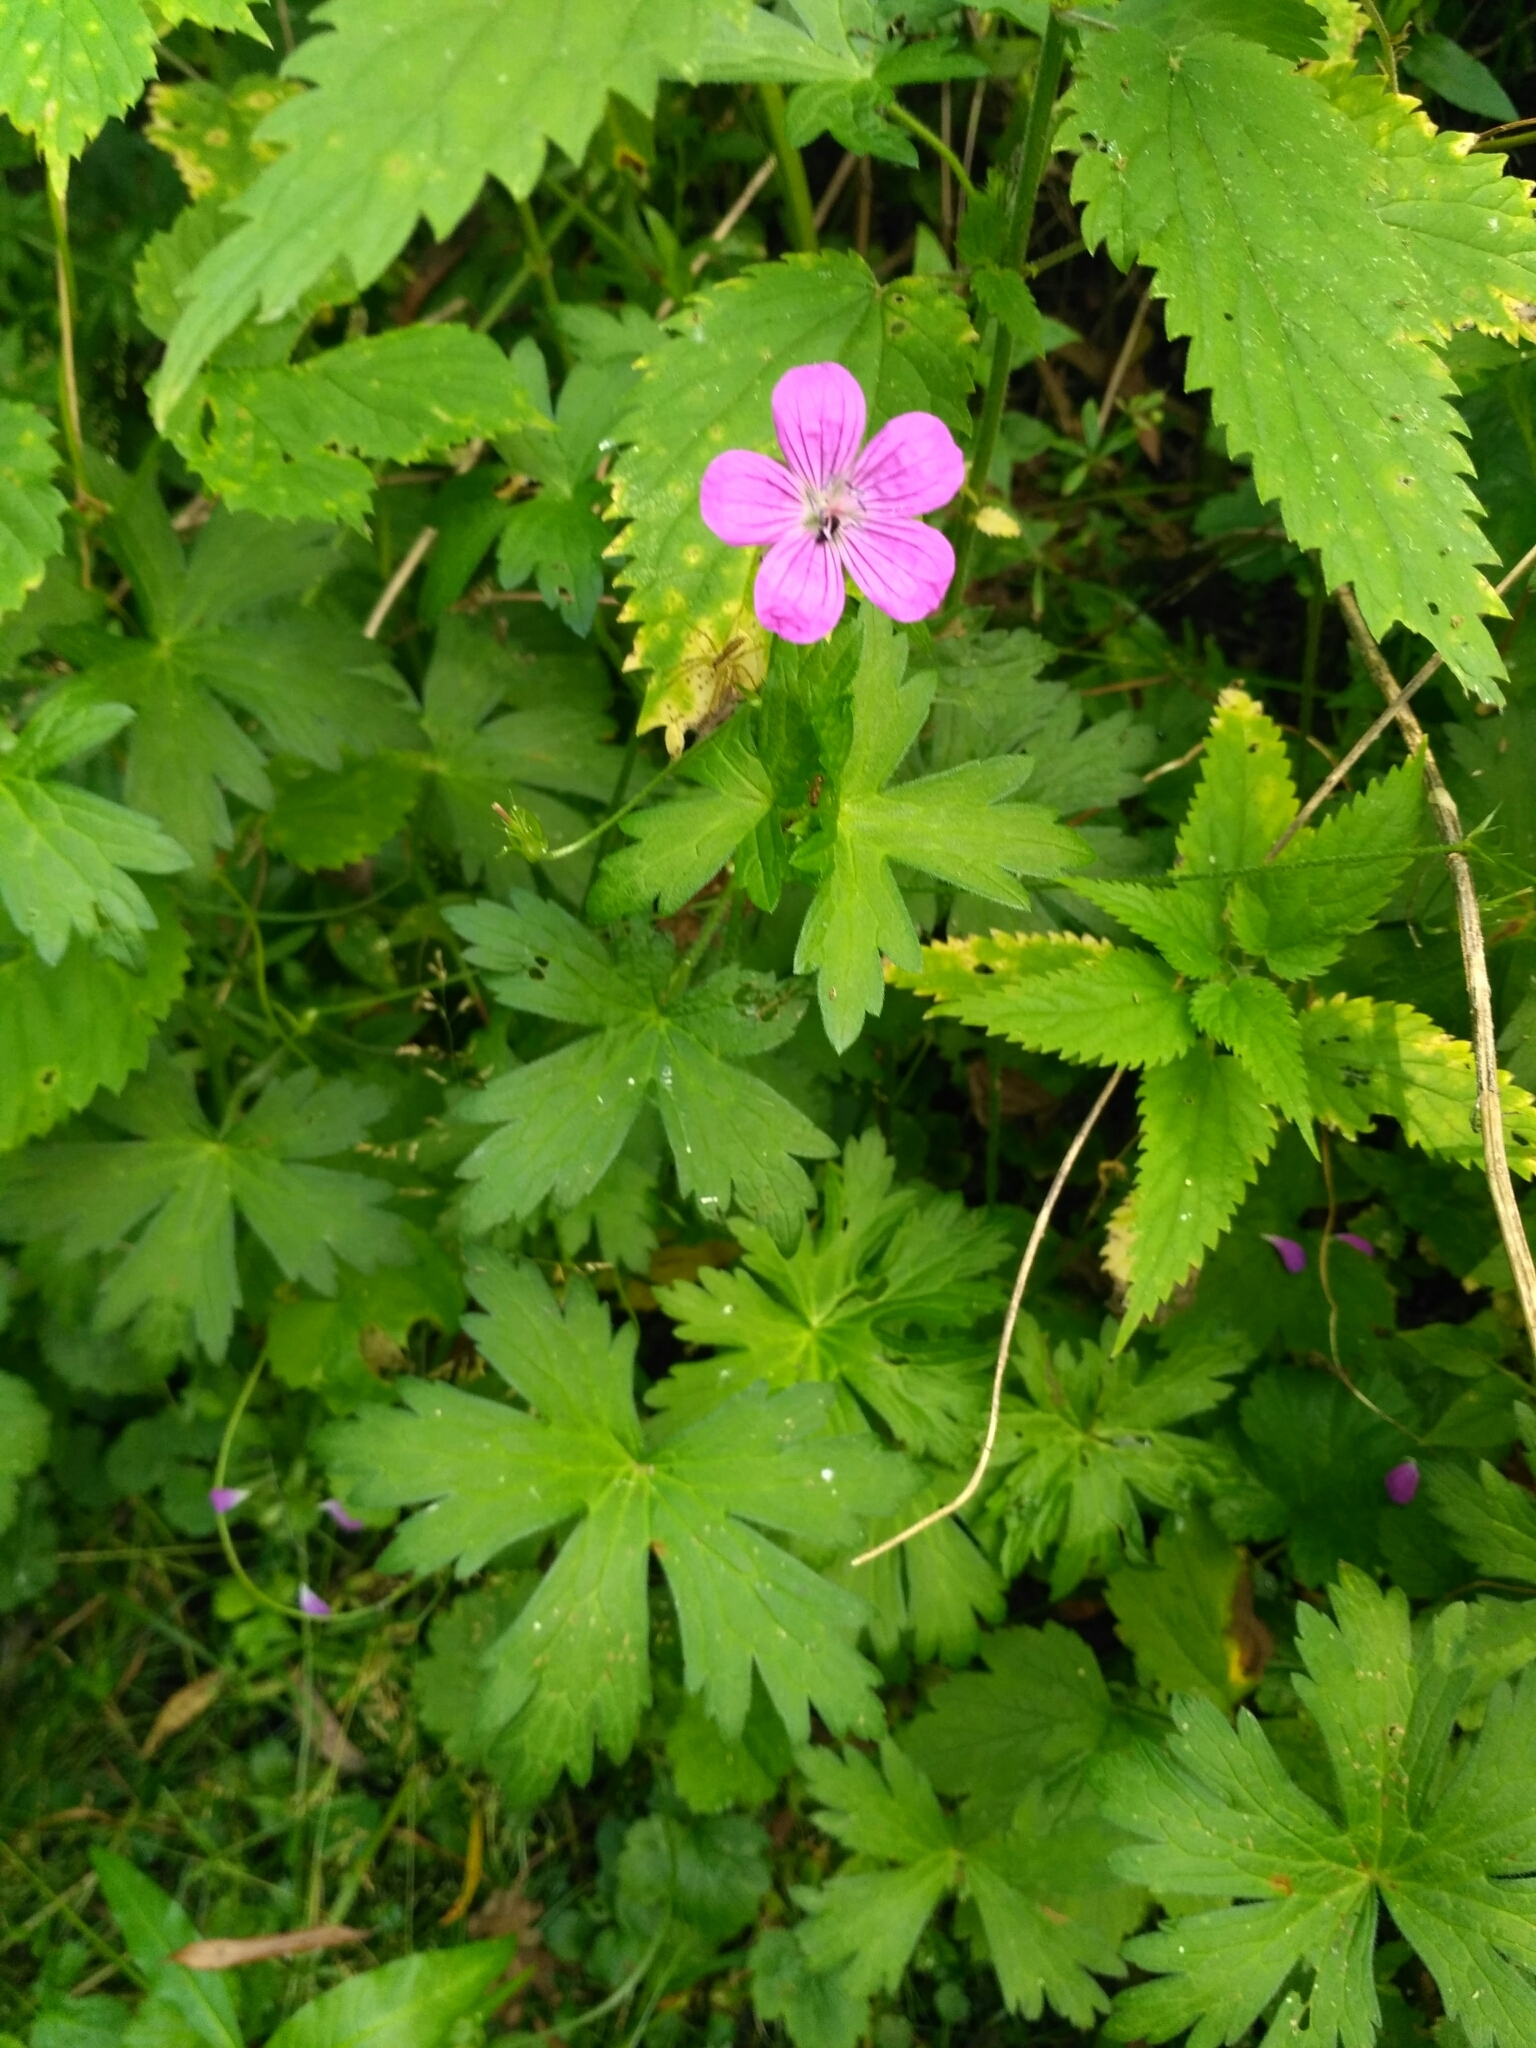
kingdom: Plantae
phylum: Tracheophyta
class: Magnoliopsida
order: Geraniales
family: Geraniaceae
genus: Geranium
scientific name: Geranium palustre
